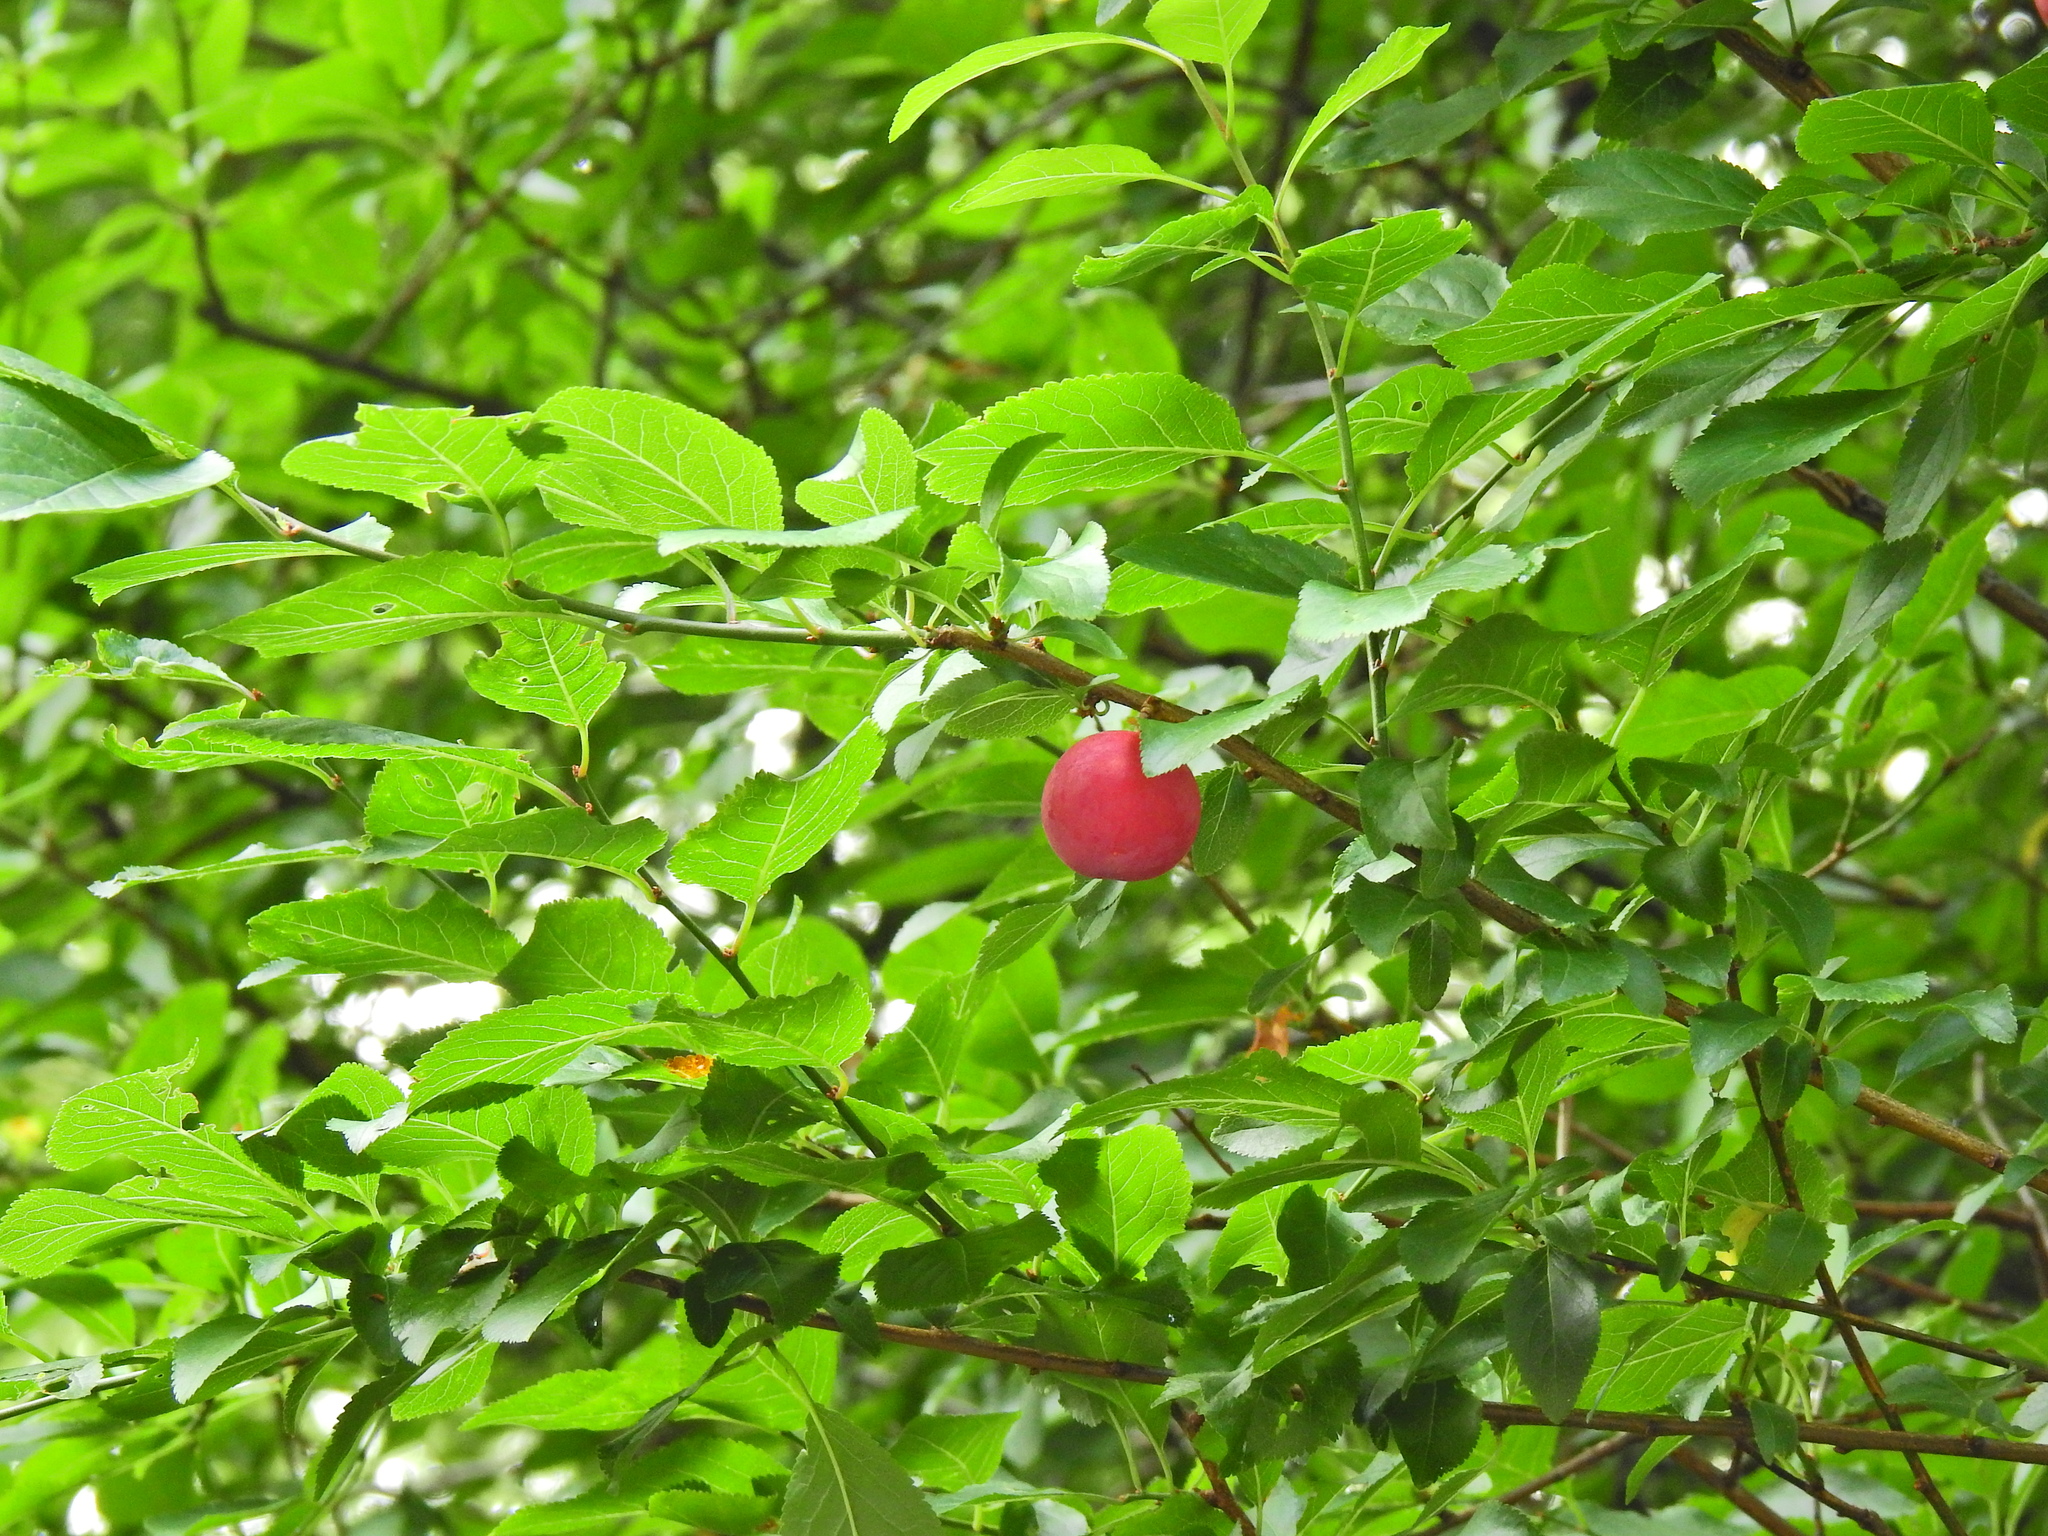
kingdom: Plantae
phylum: Tracheophyta
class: Magnoliopsida
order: Rosales
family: Rosaceae
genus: Prunus
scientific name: Prunus cerasifera
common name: Cherry plum
